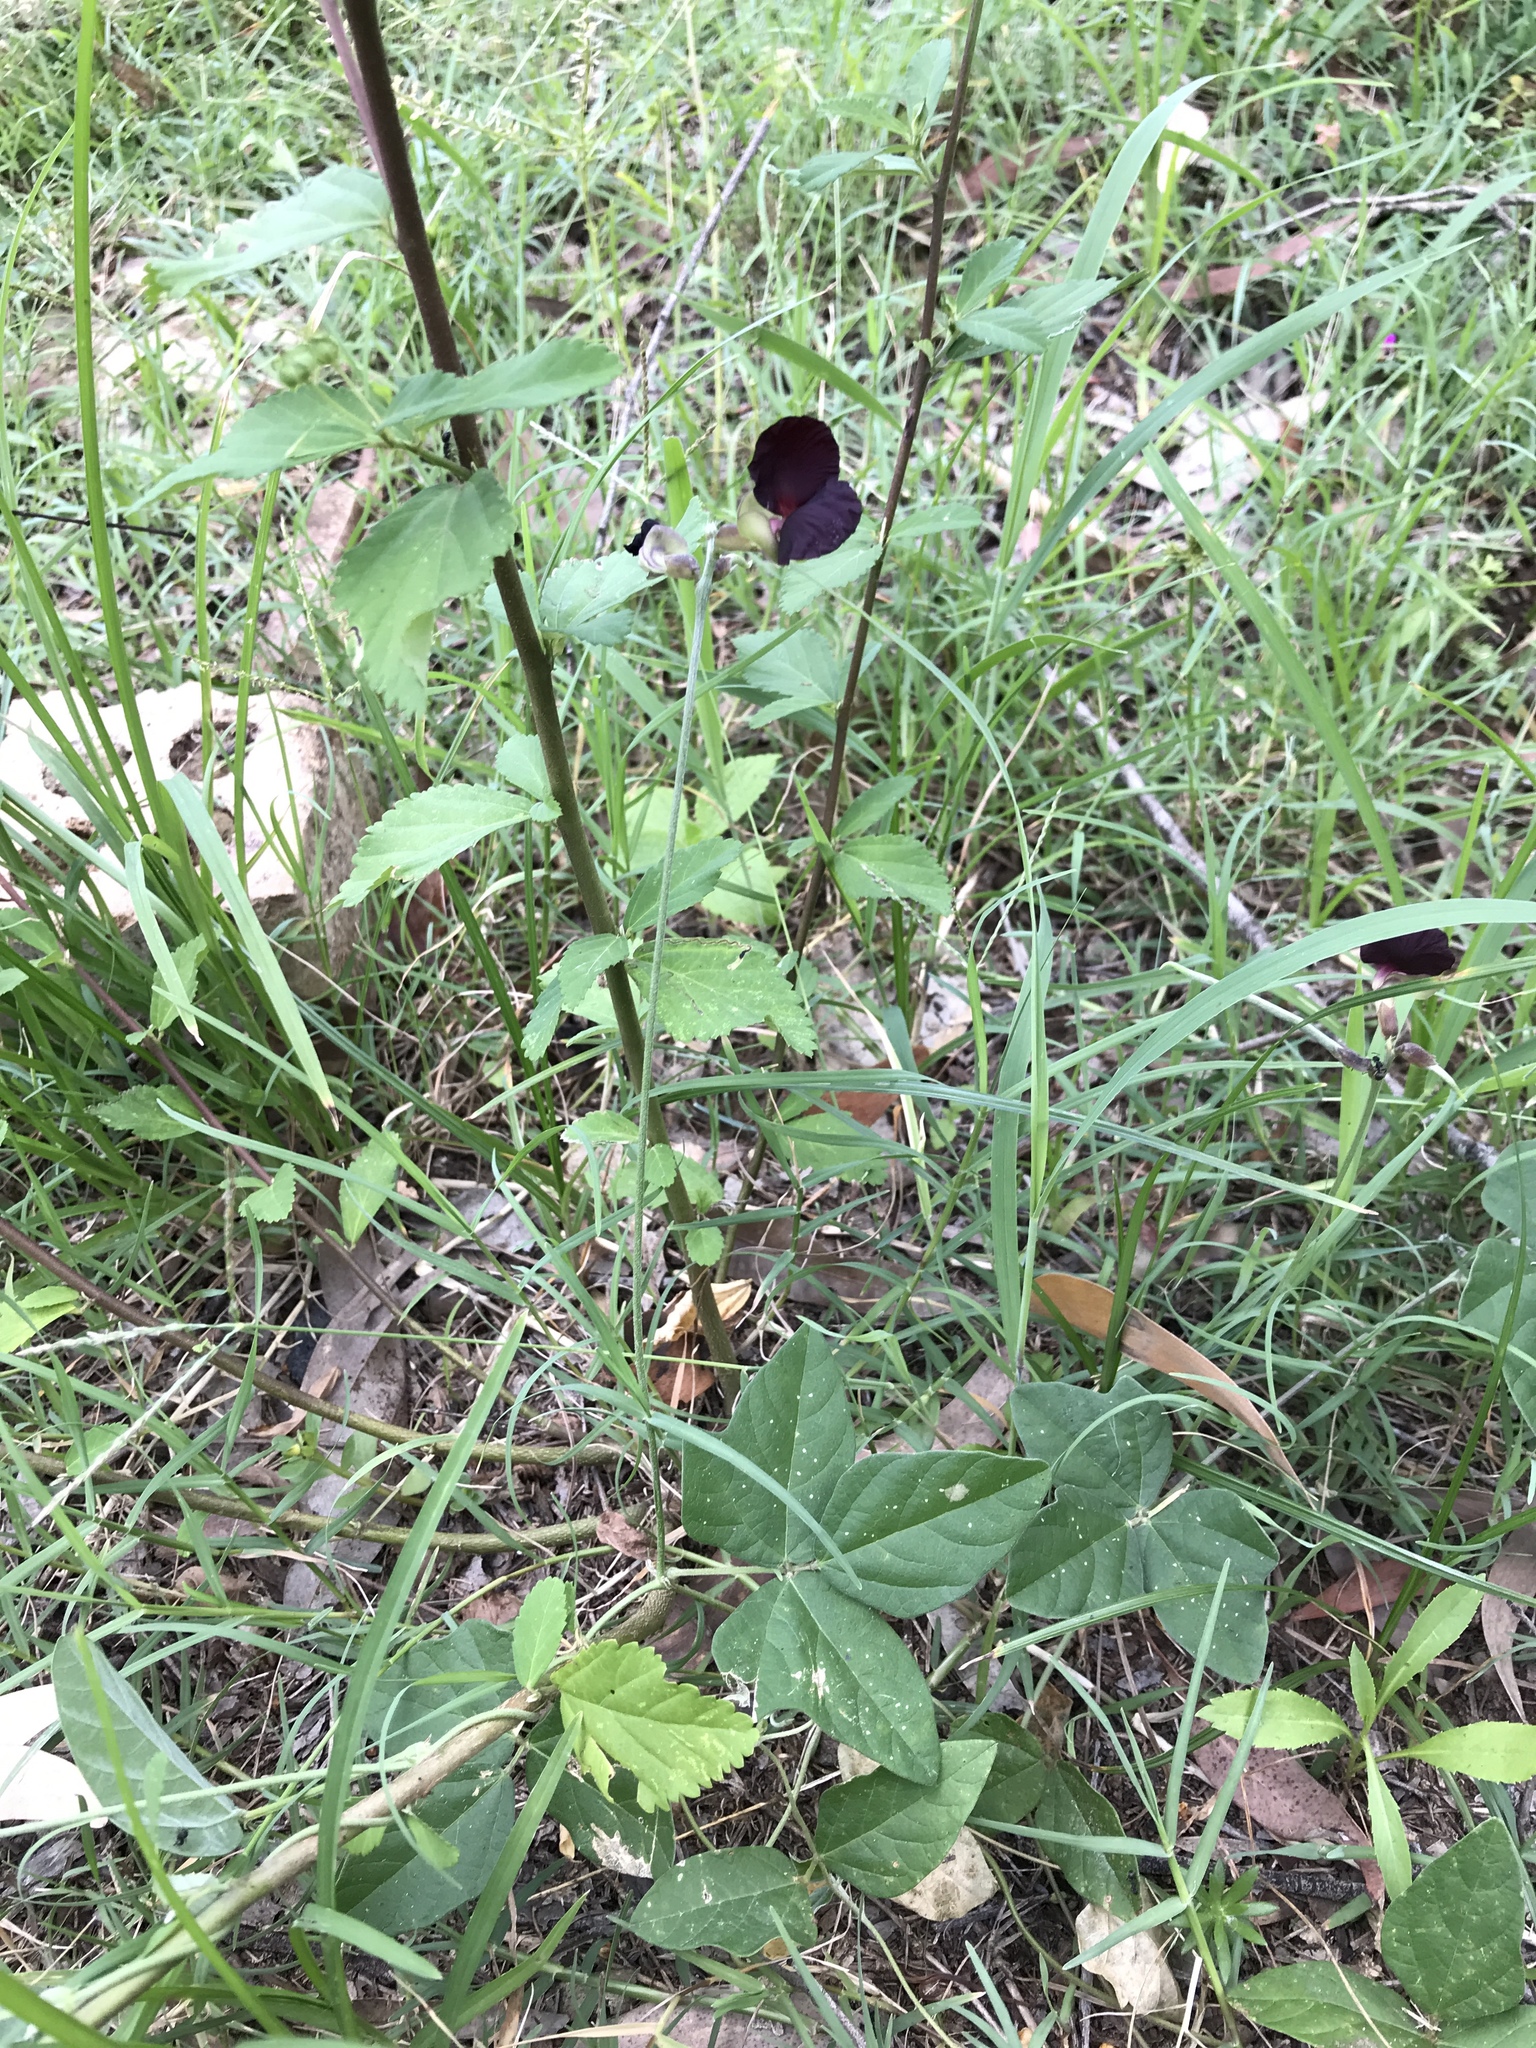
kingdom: Plantae
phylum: Tracheophyta
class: Magnoliopsida
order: Fabales
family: Fabaceae
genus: Macroptilium
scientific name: Macroptilium atropurpureum
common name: Purple bushbean
